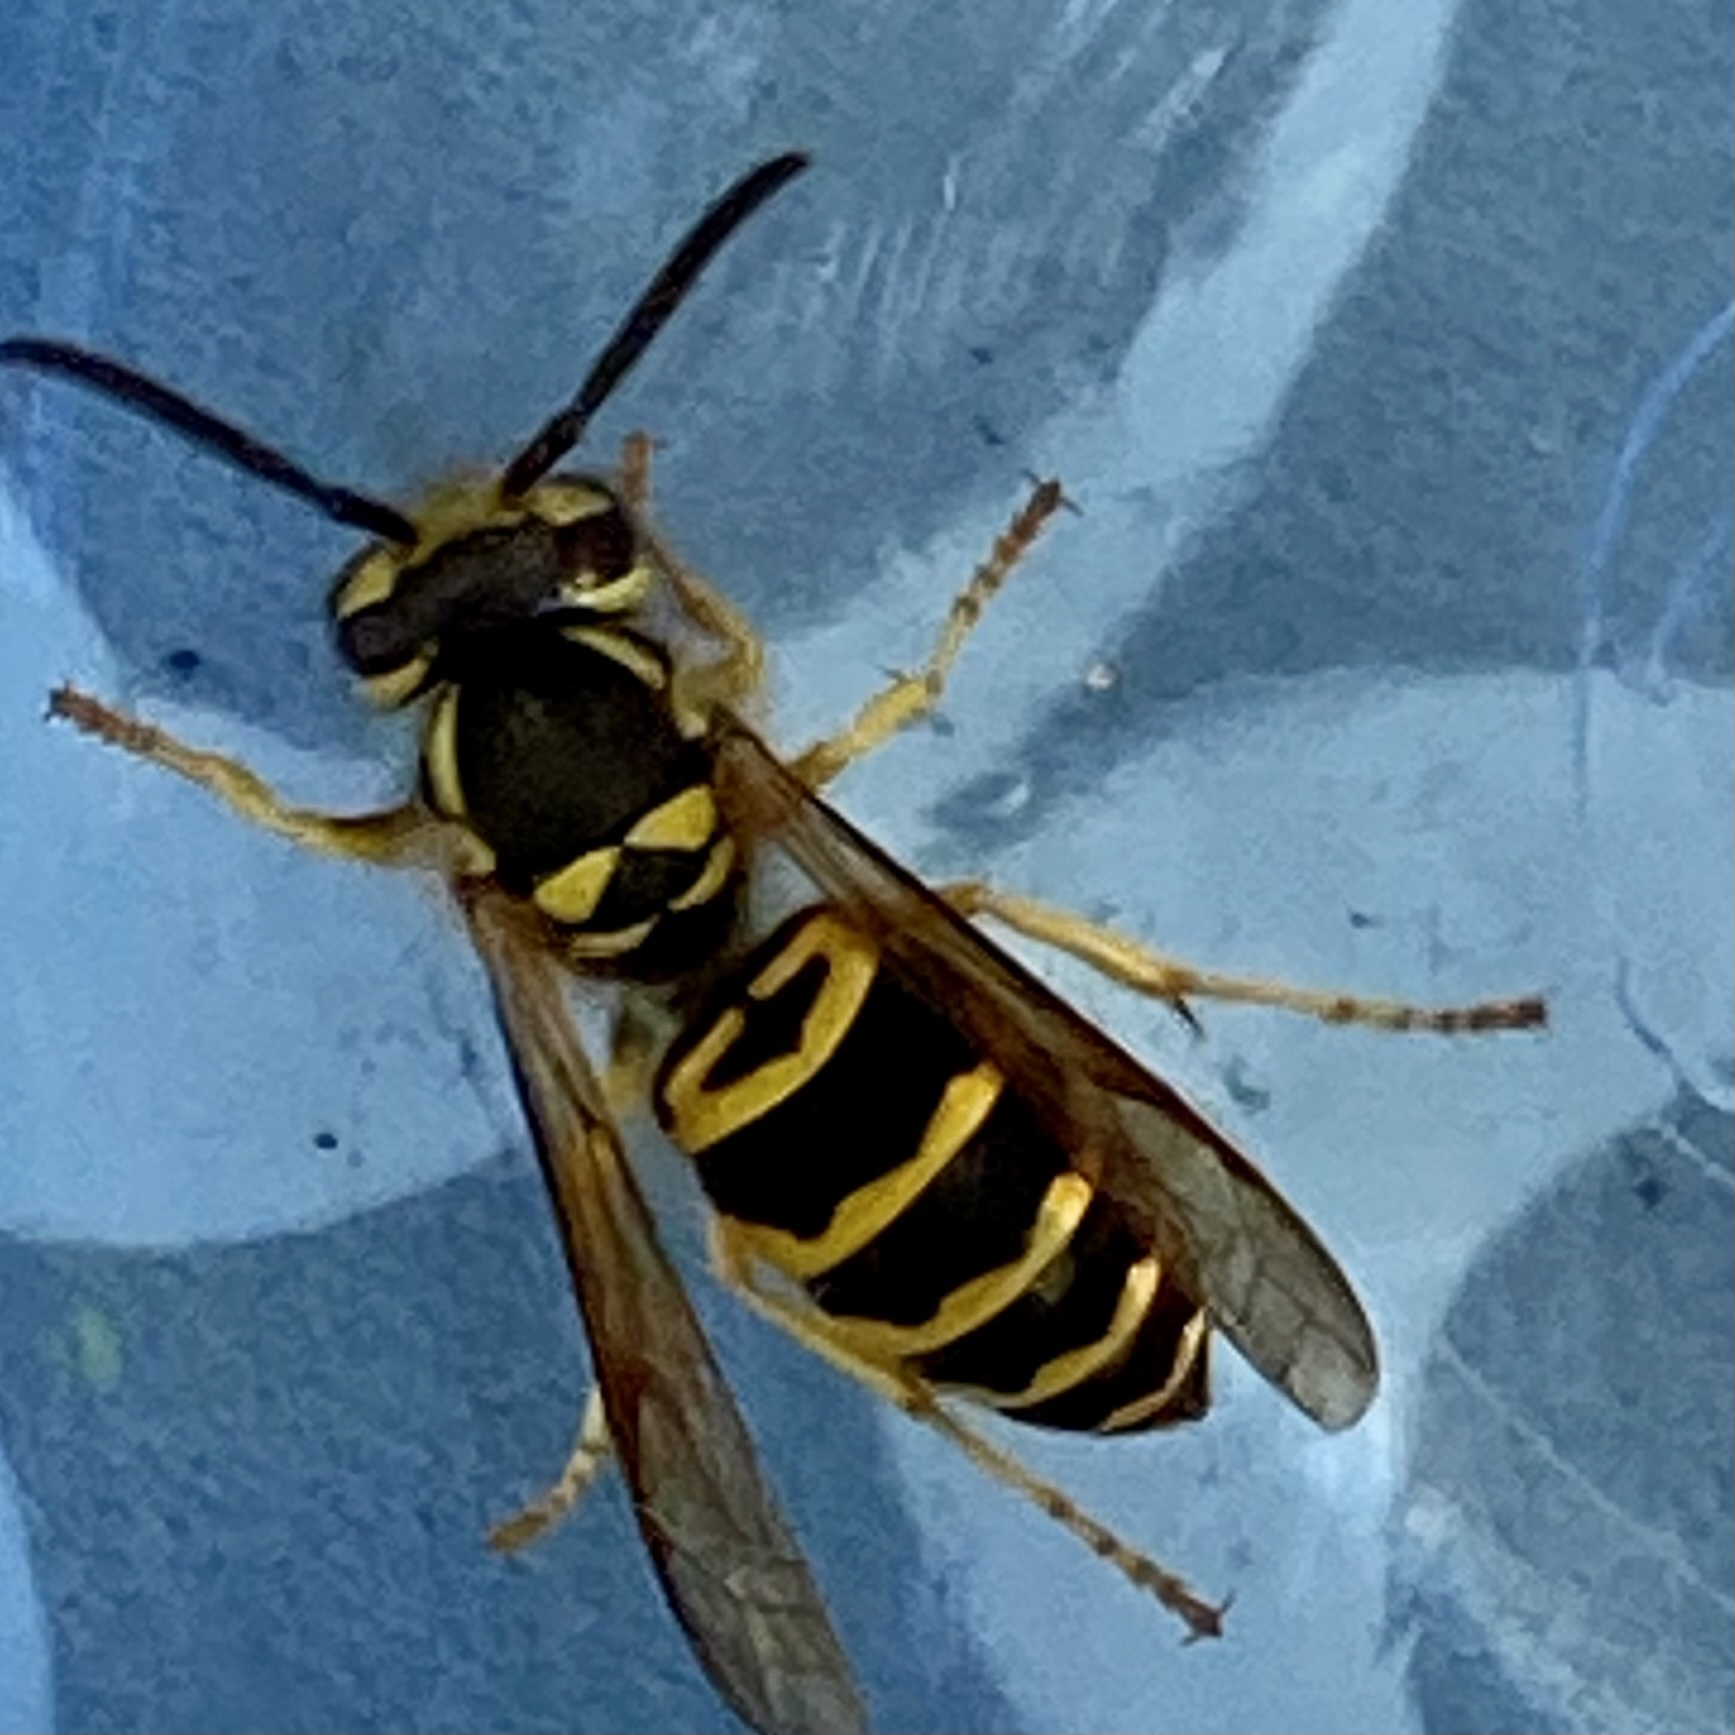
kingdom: Animalia
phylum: Arthropoda
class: Insecta
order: Hymenoptera
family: Vespidae
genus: Vespula
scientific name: Vespula maculifrons
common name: Eastern yellowjacket
